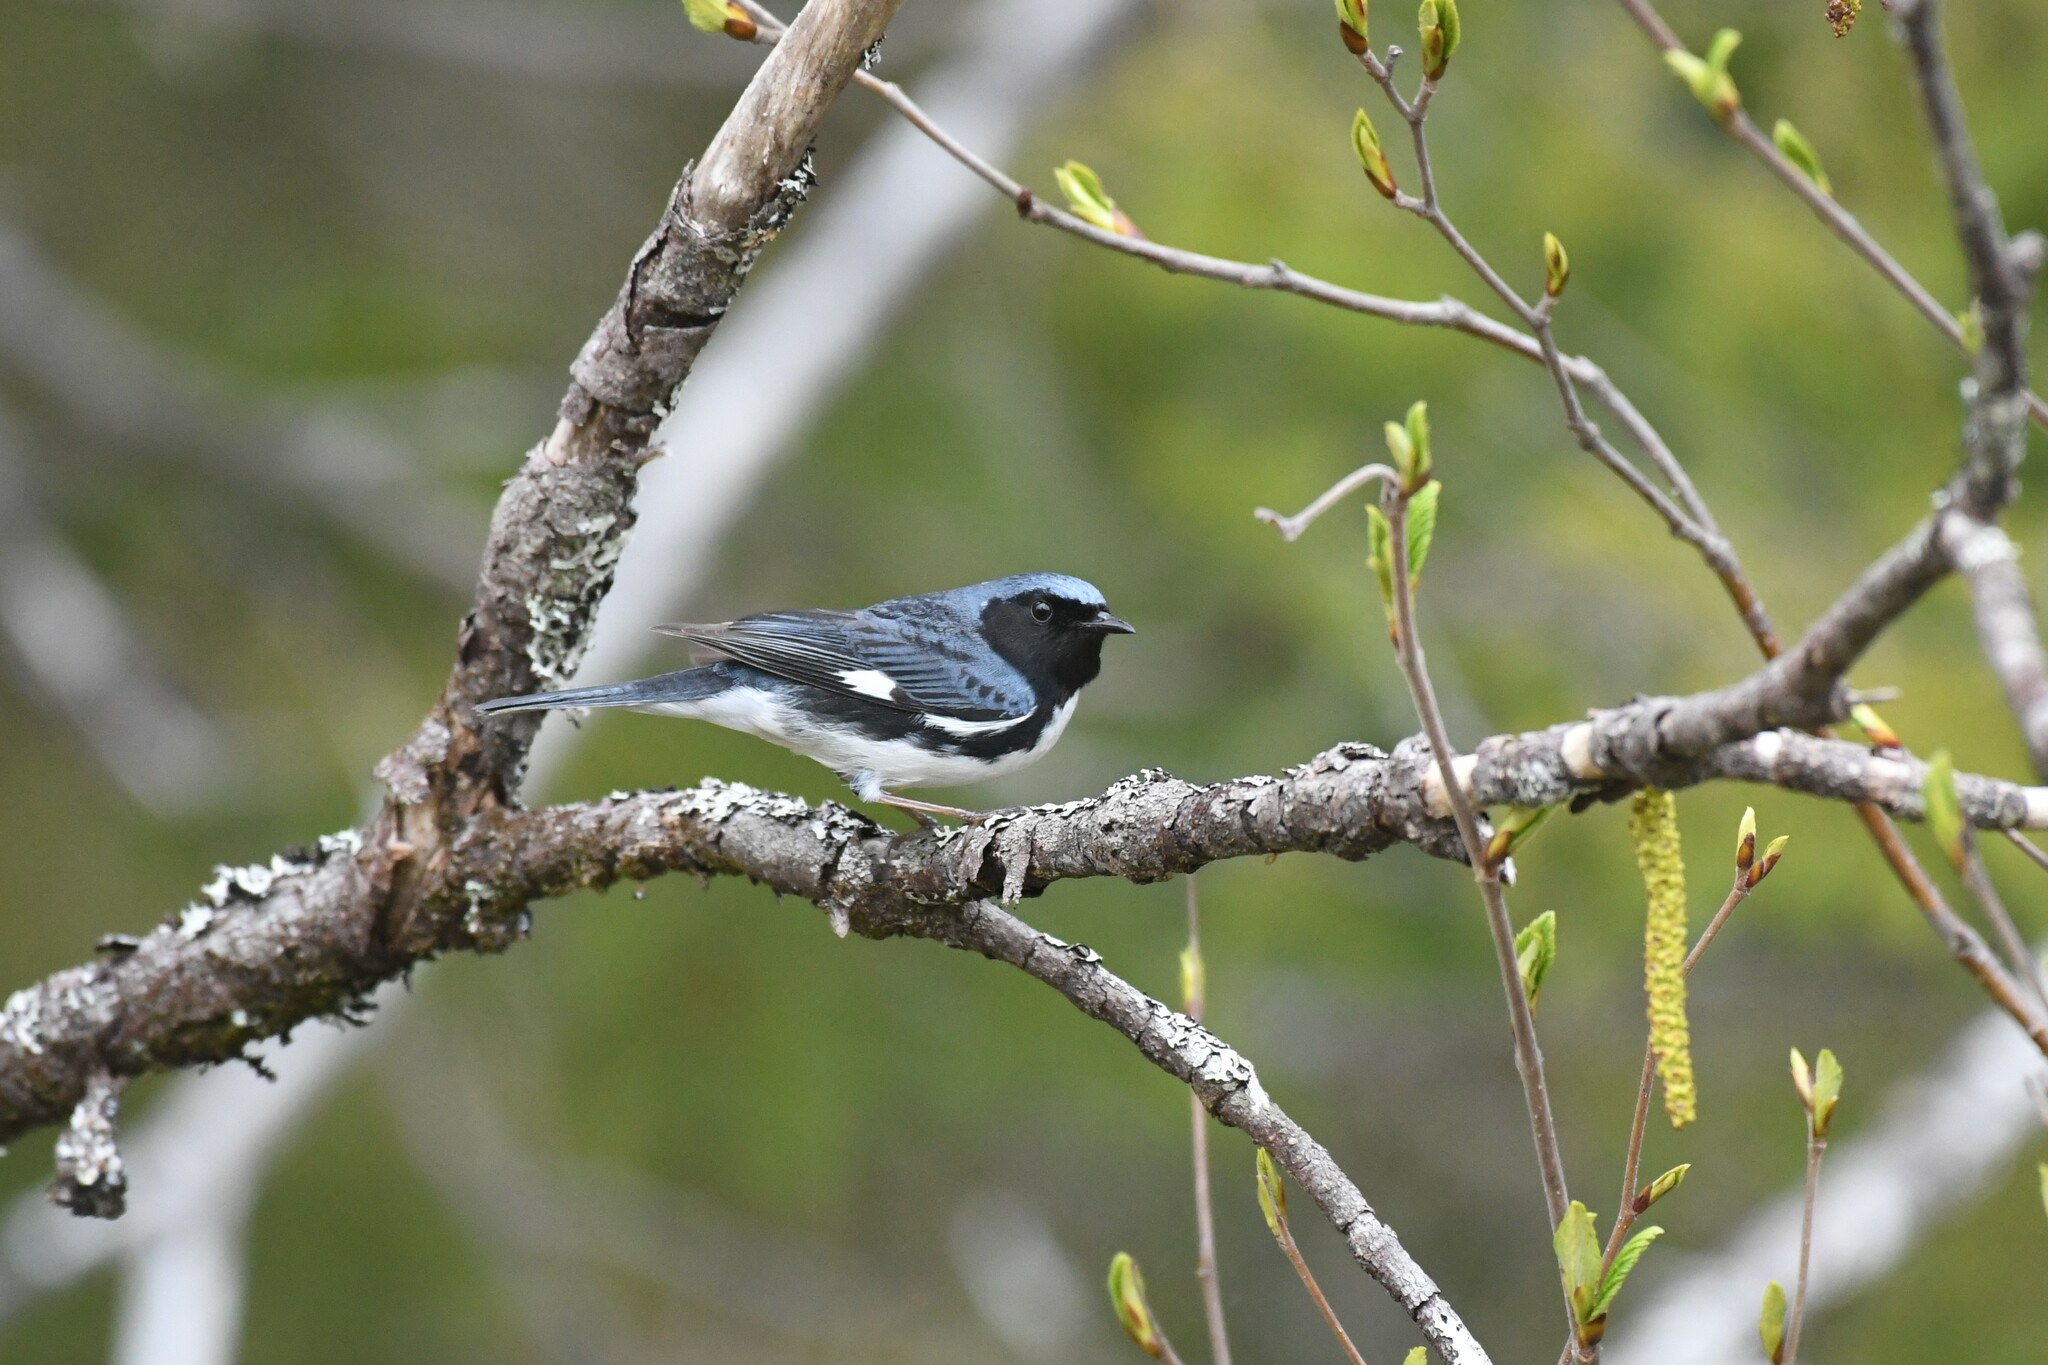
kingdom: Animalia
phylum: Chordata
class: Aves
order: Passeriformes
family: Parulidae
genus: Setophaga
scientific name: Setophaga caerulescens
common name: Black-throated blue warbler
